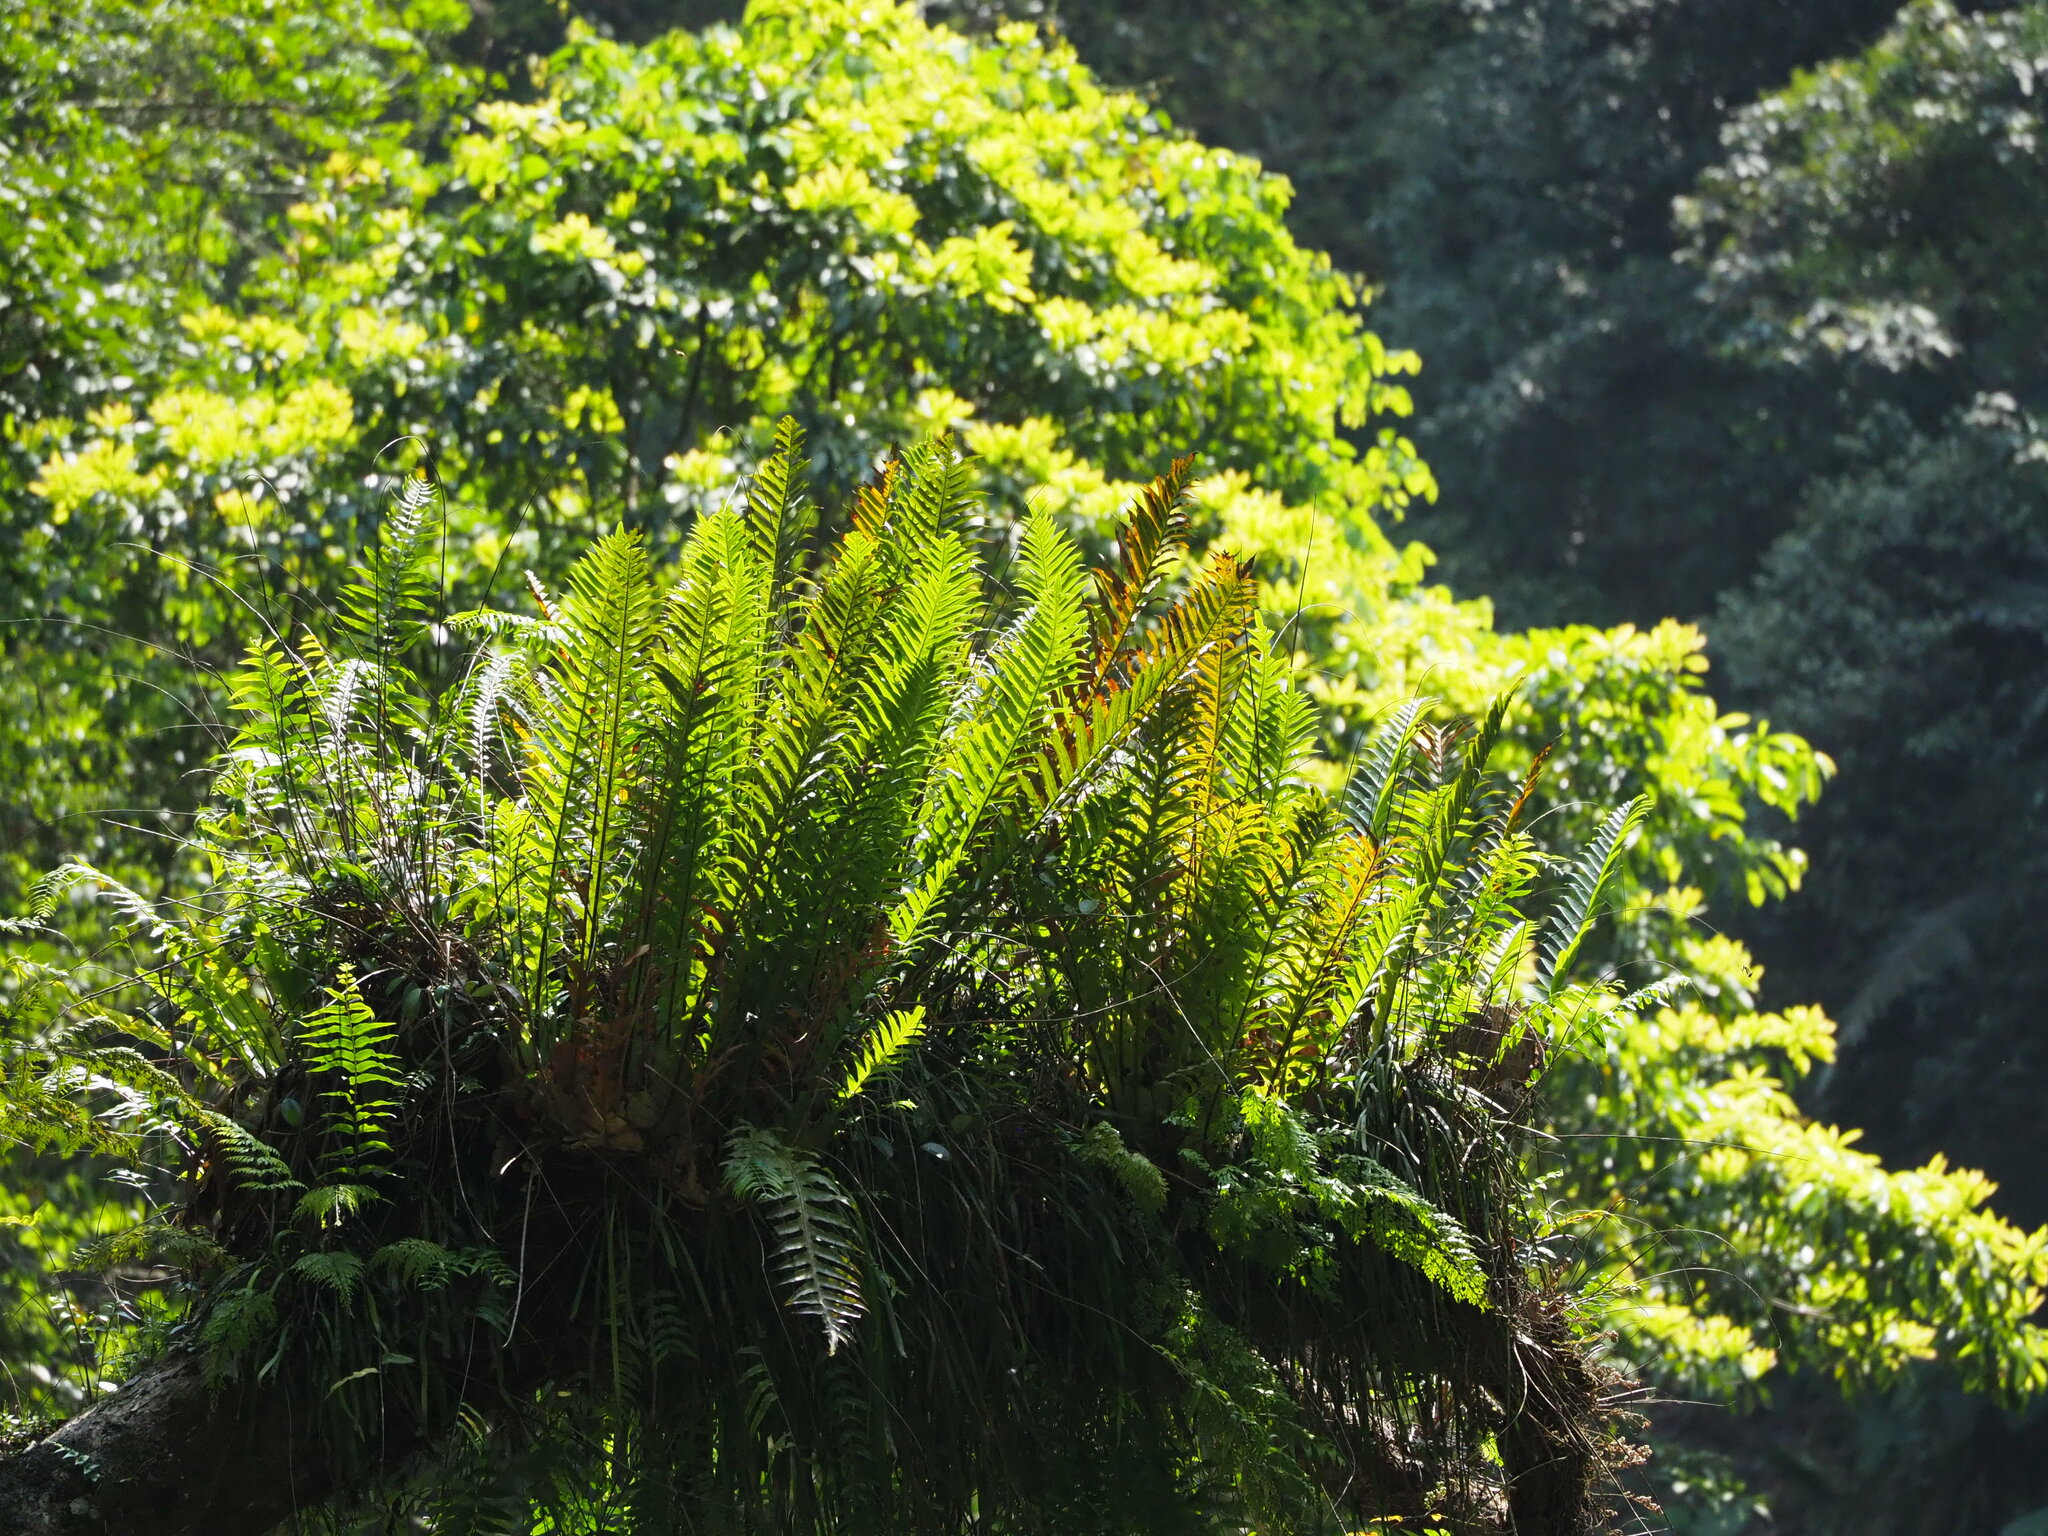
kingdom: Plantae
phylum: Tracheophyta
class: Polypodiopsida
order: Polypodiales
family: Polypodiaceae
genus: Drynaria
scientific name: Drynaria coronans
